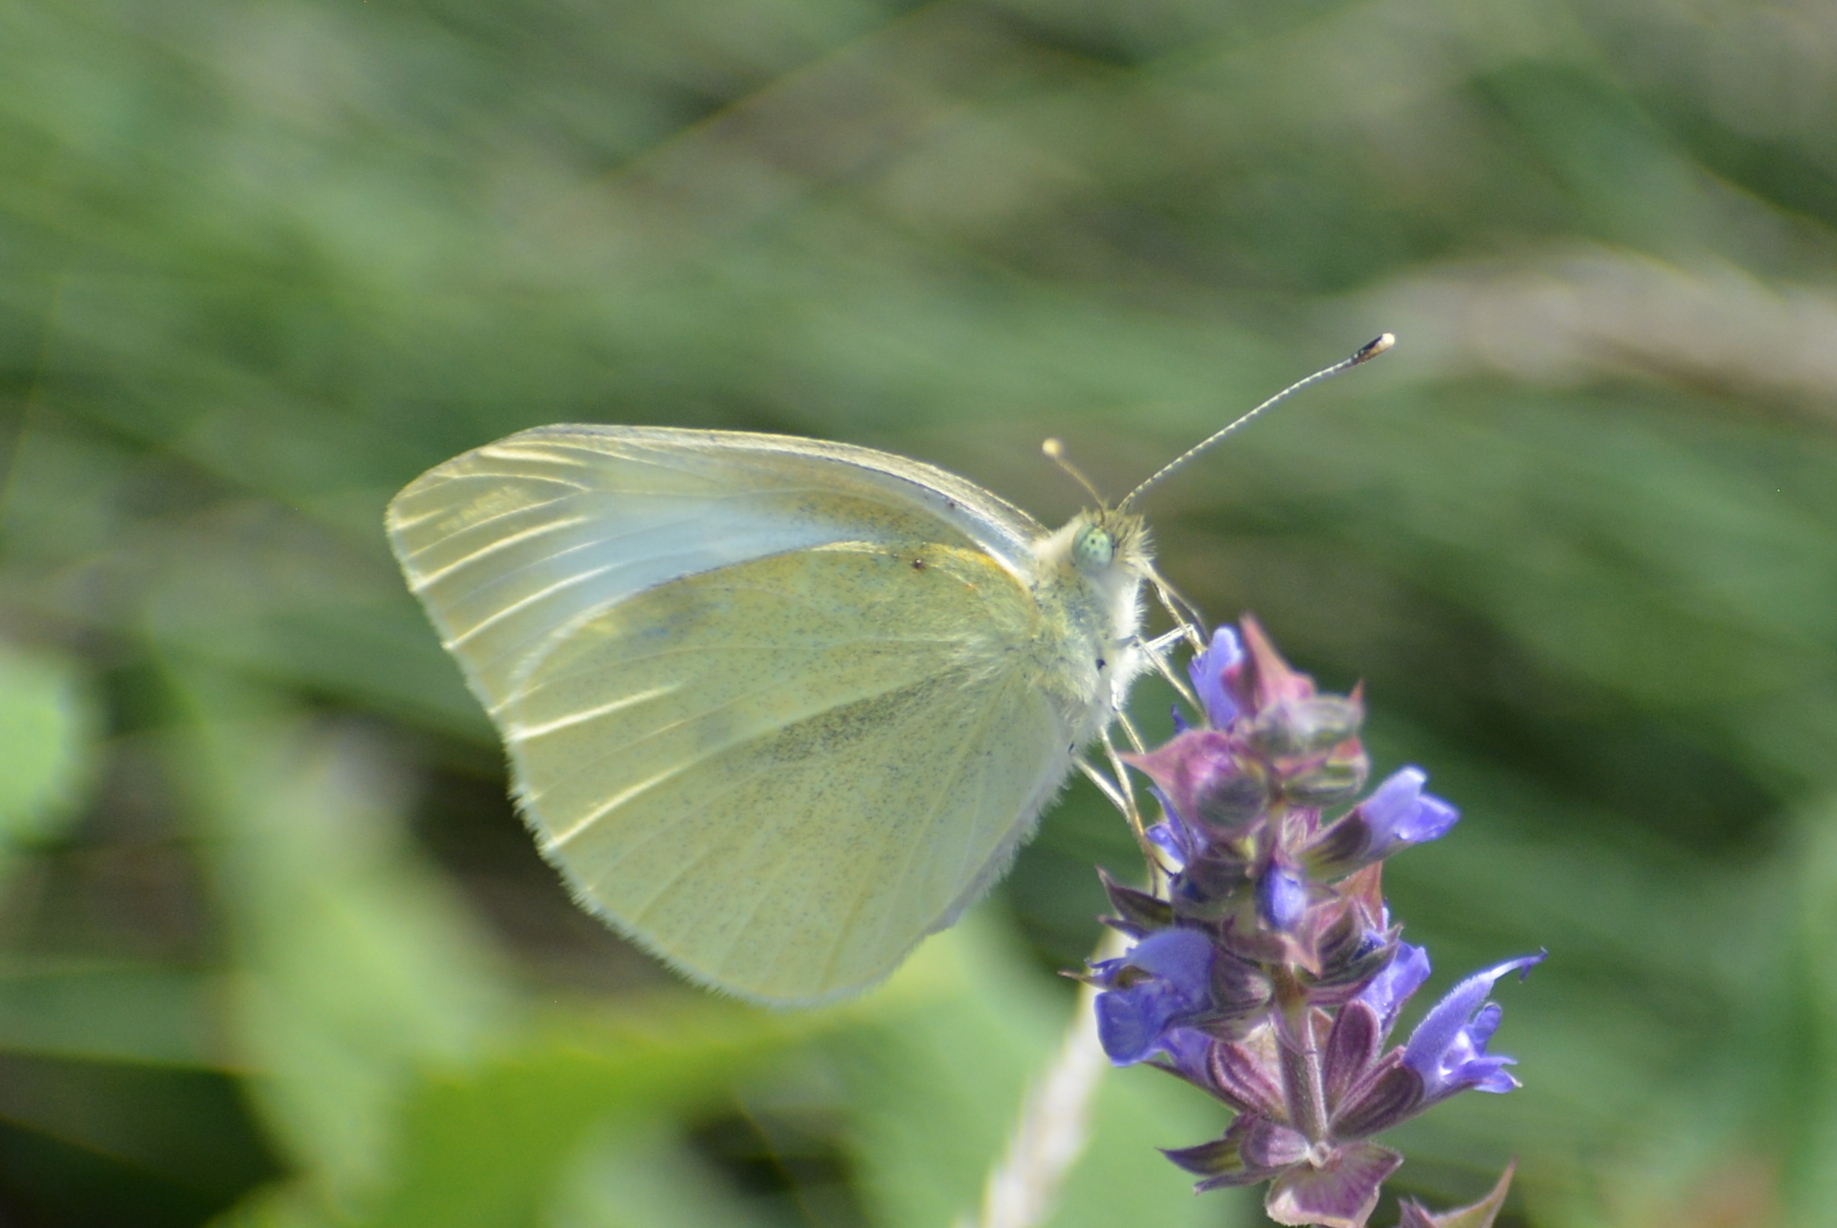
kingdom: Animalia
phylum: Arthropoda
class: Insecta
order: Lepidoptera
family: Pieridae
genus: Pieris
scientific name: Pieris rapae
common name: Small white
